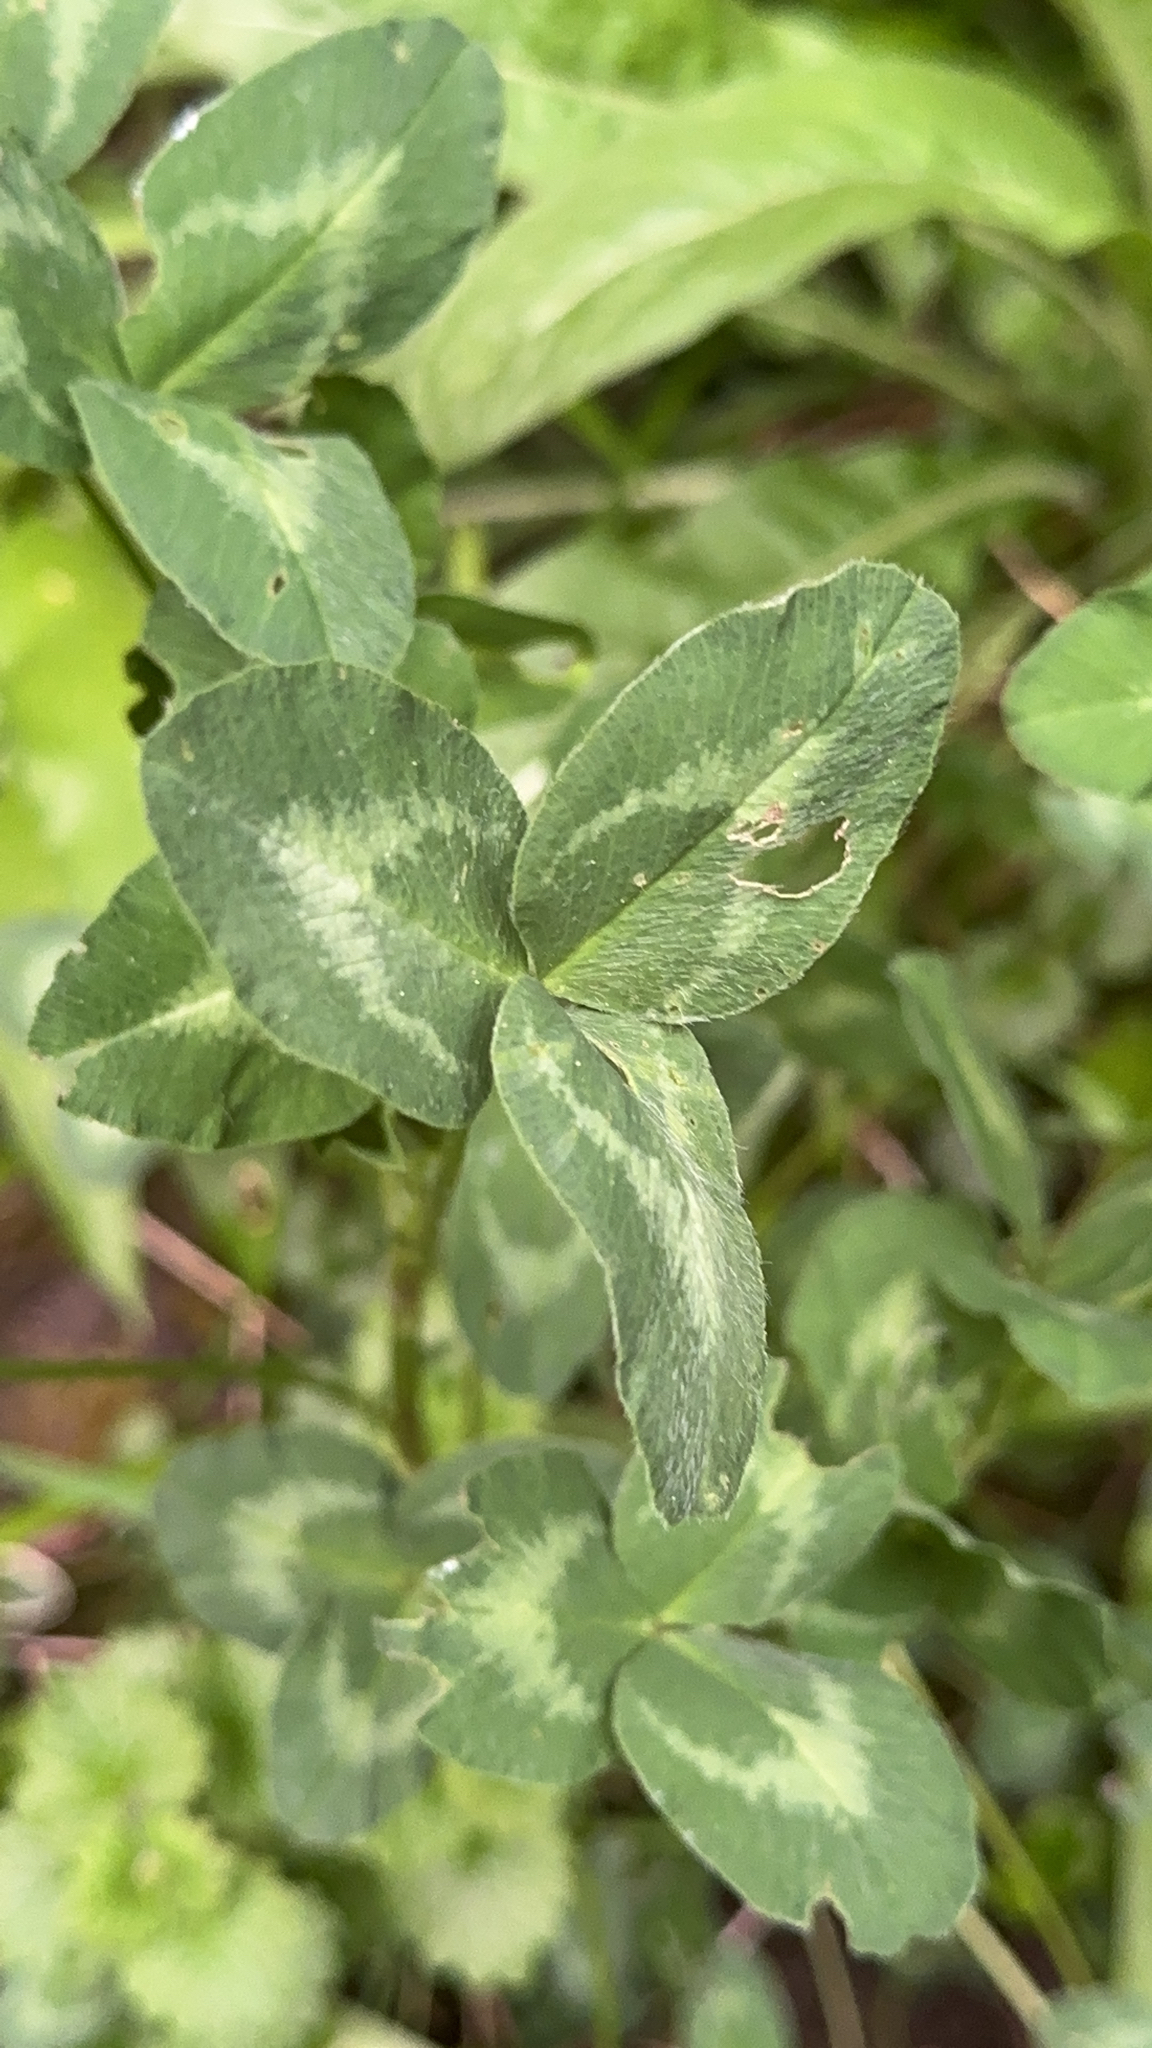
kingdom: Plantae
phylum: Tracheophyta
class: Magnoliopsida
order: Fabales
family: Fabaceae
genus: Trifolium
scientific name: Trifolium pratense
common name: Red clover
